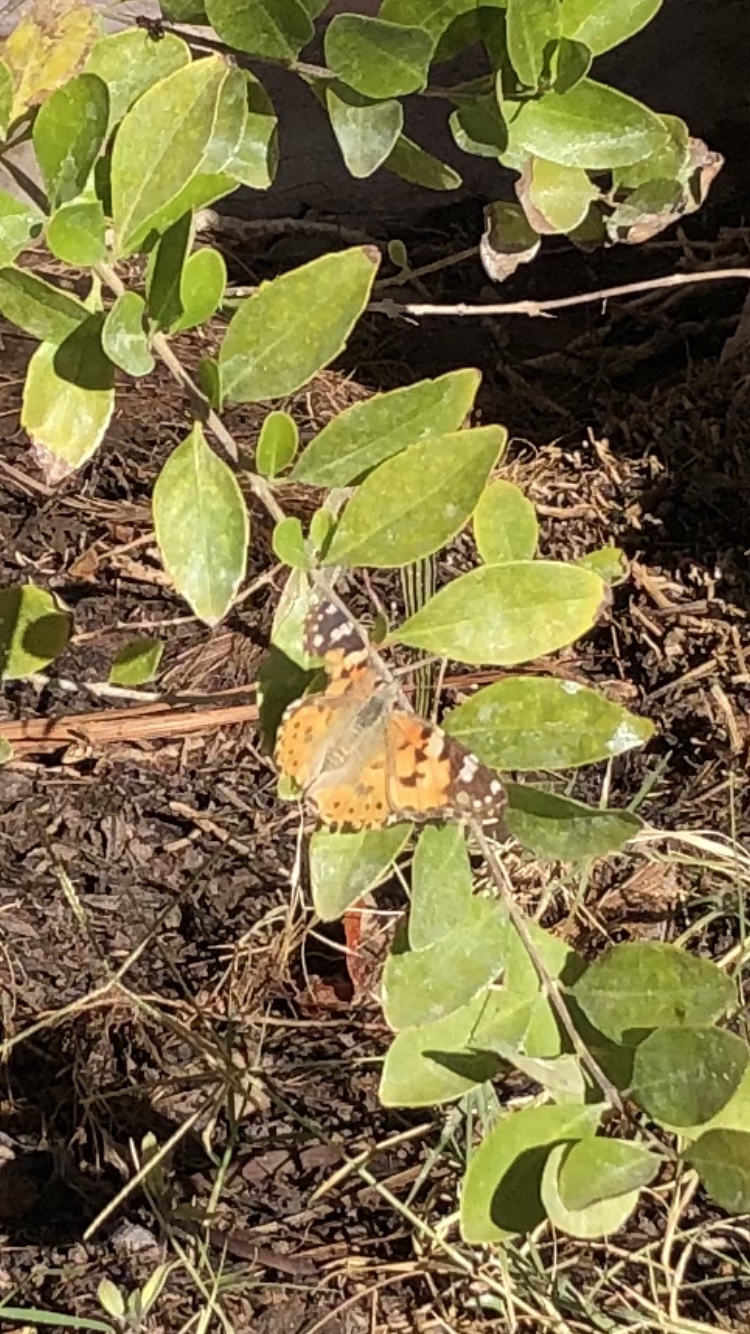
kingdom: Animalia
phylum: Arthropoda
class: Insecta
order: Lepidoptera
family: Nymphalidae
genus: Vanessa
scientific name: Vanessa cardui
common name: Painted lady
